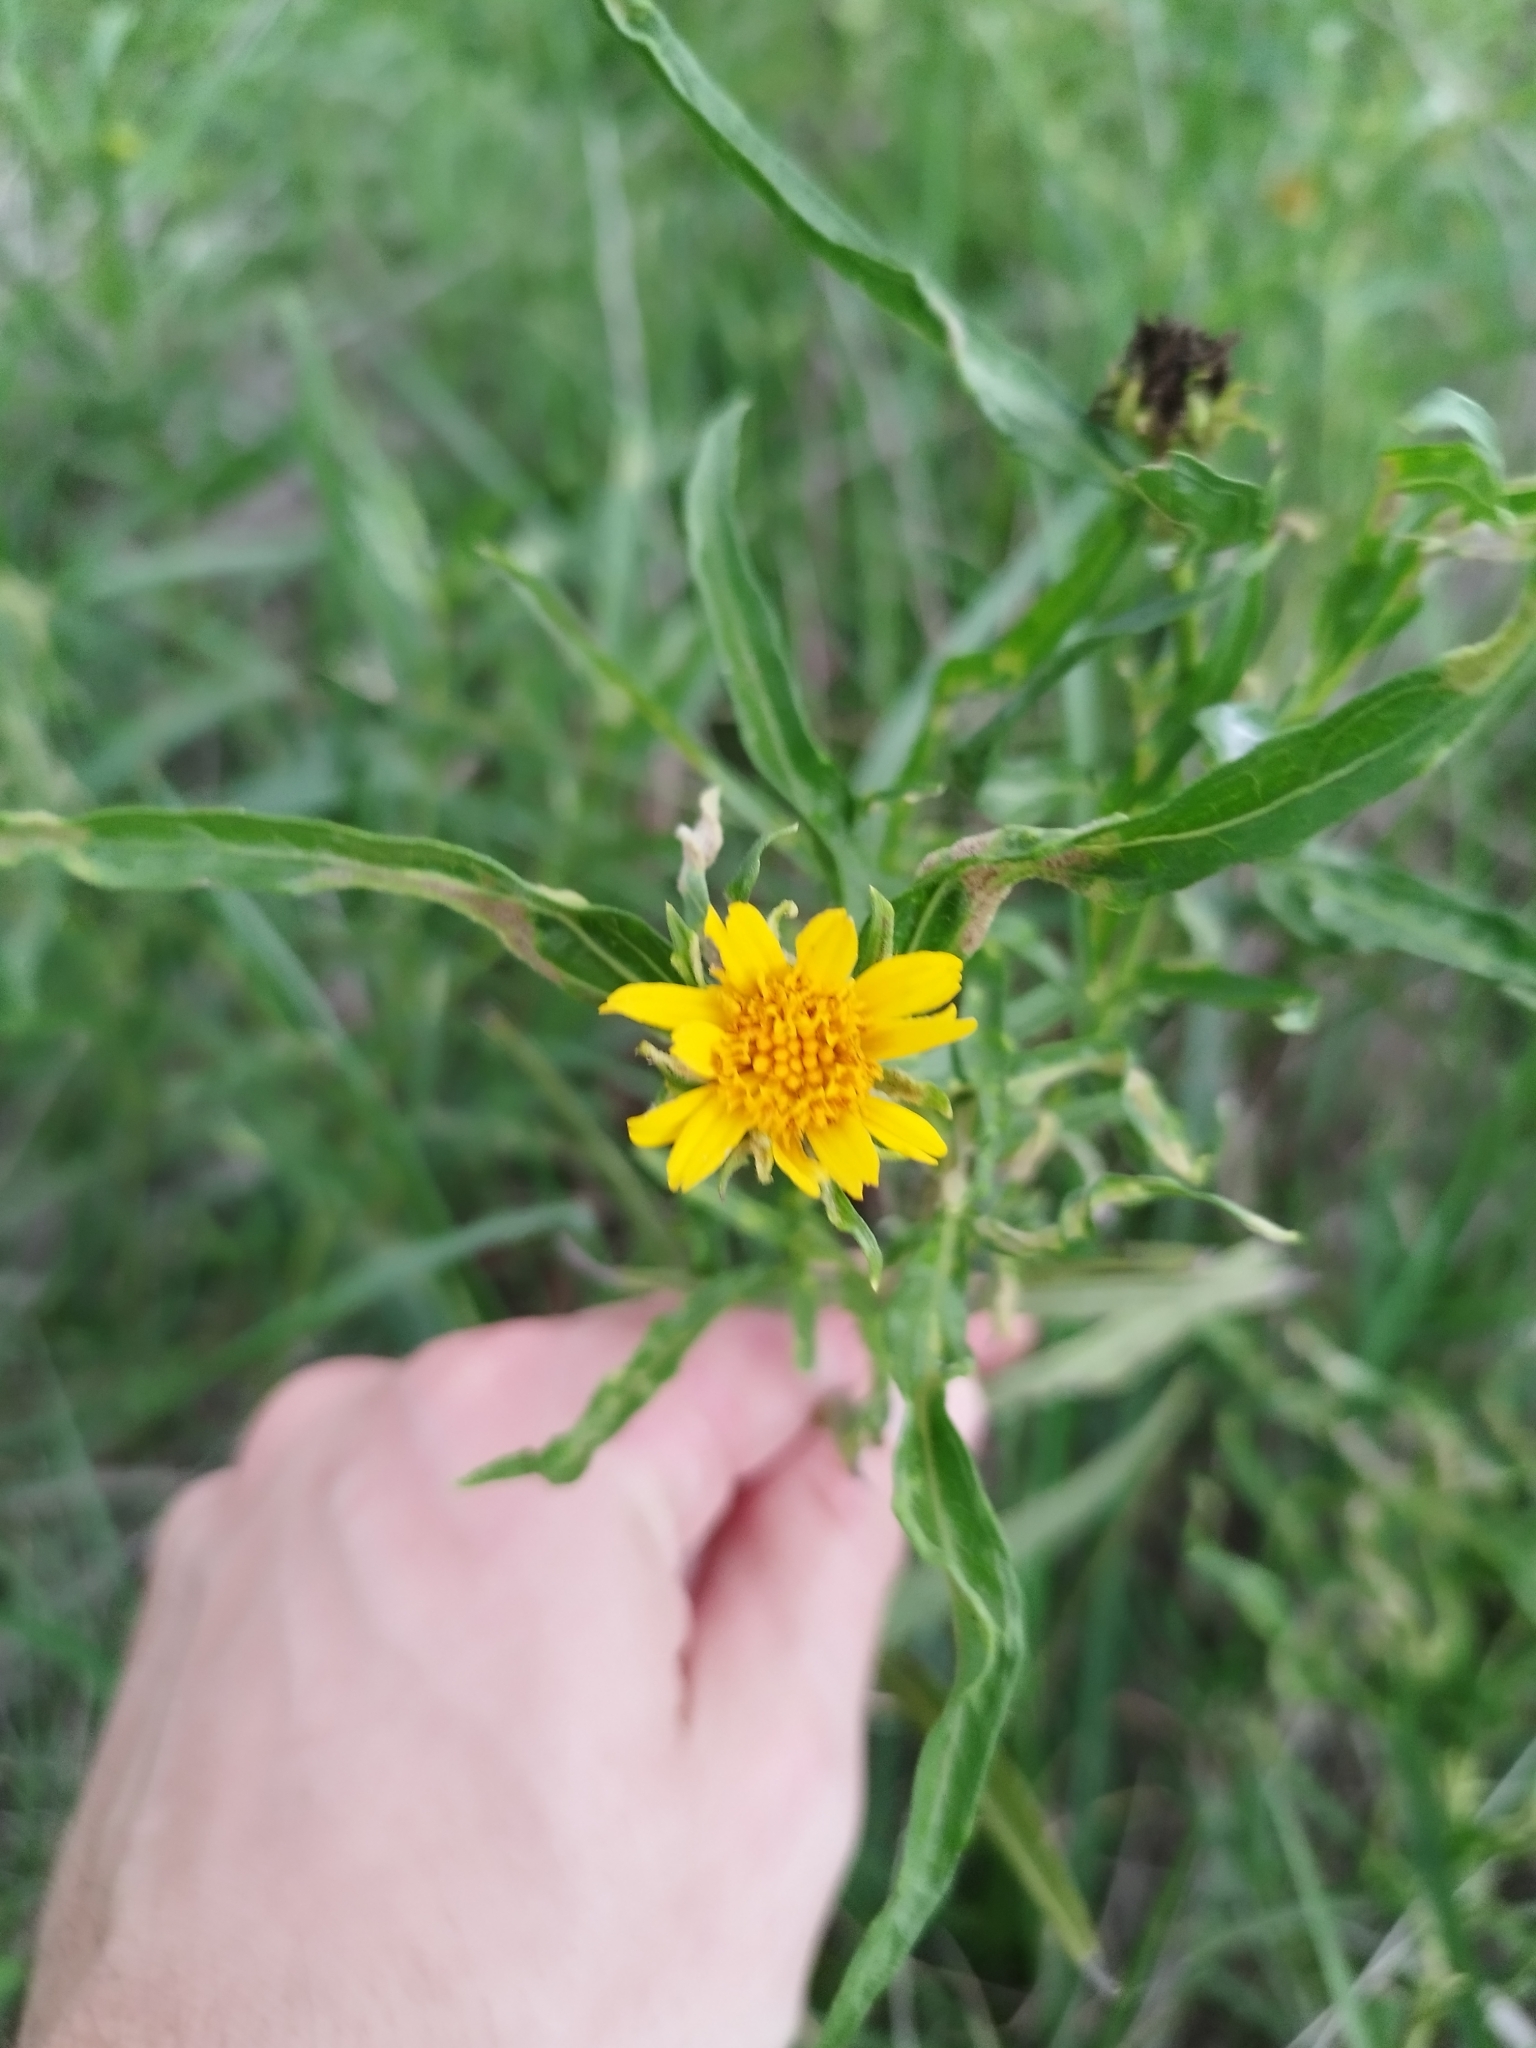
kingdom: Plantae
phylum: Tracheophyta
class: Magnoliopsida
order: Asterales
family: Asteraceae
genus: Pascalia
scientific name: Pascalia glauca
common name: Beach creeping oxeye
